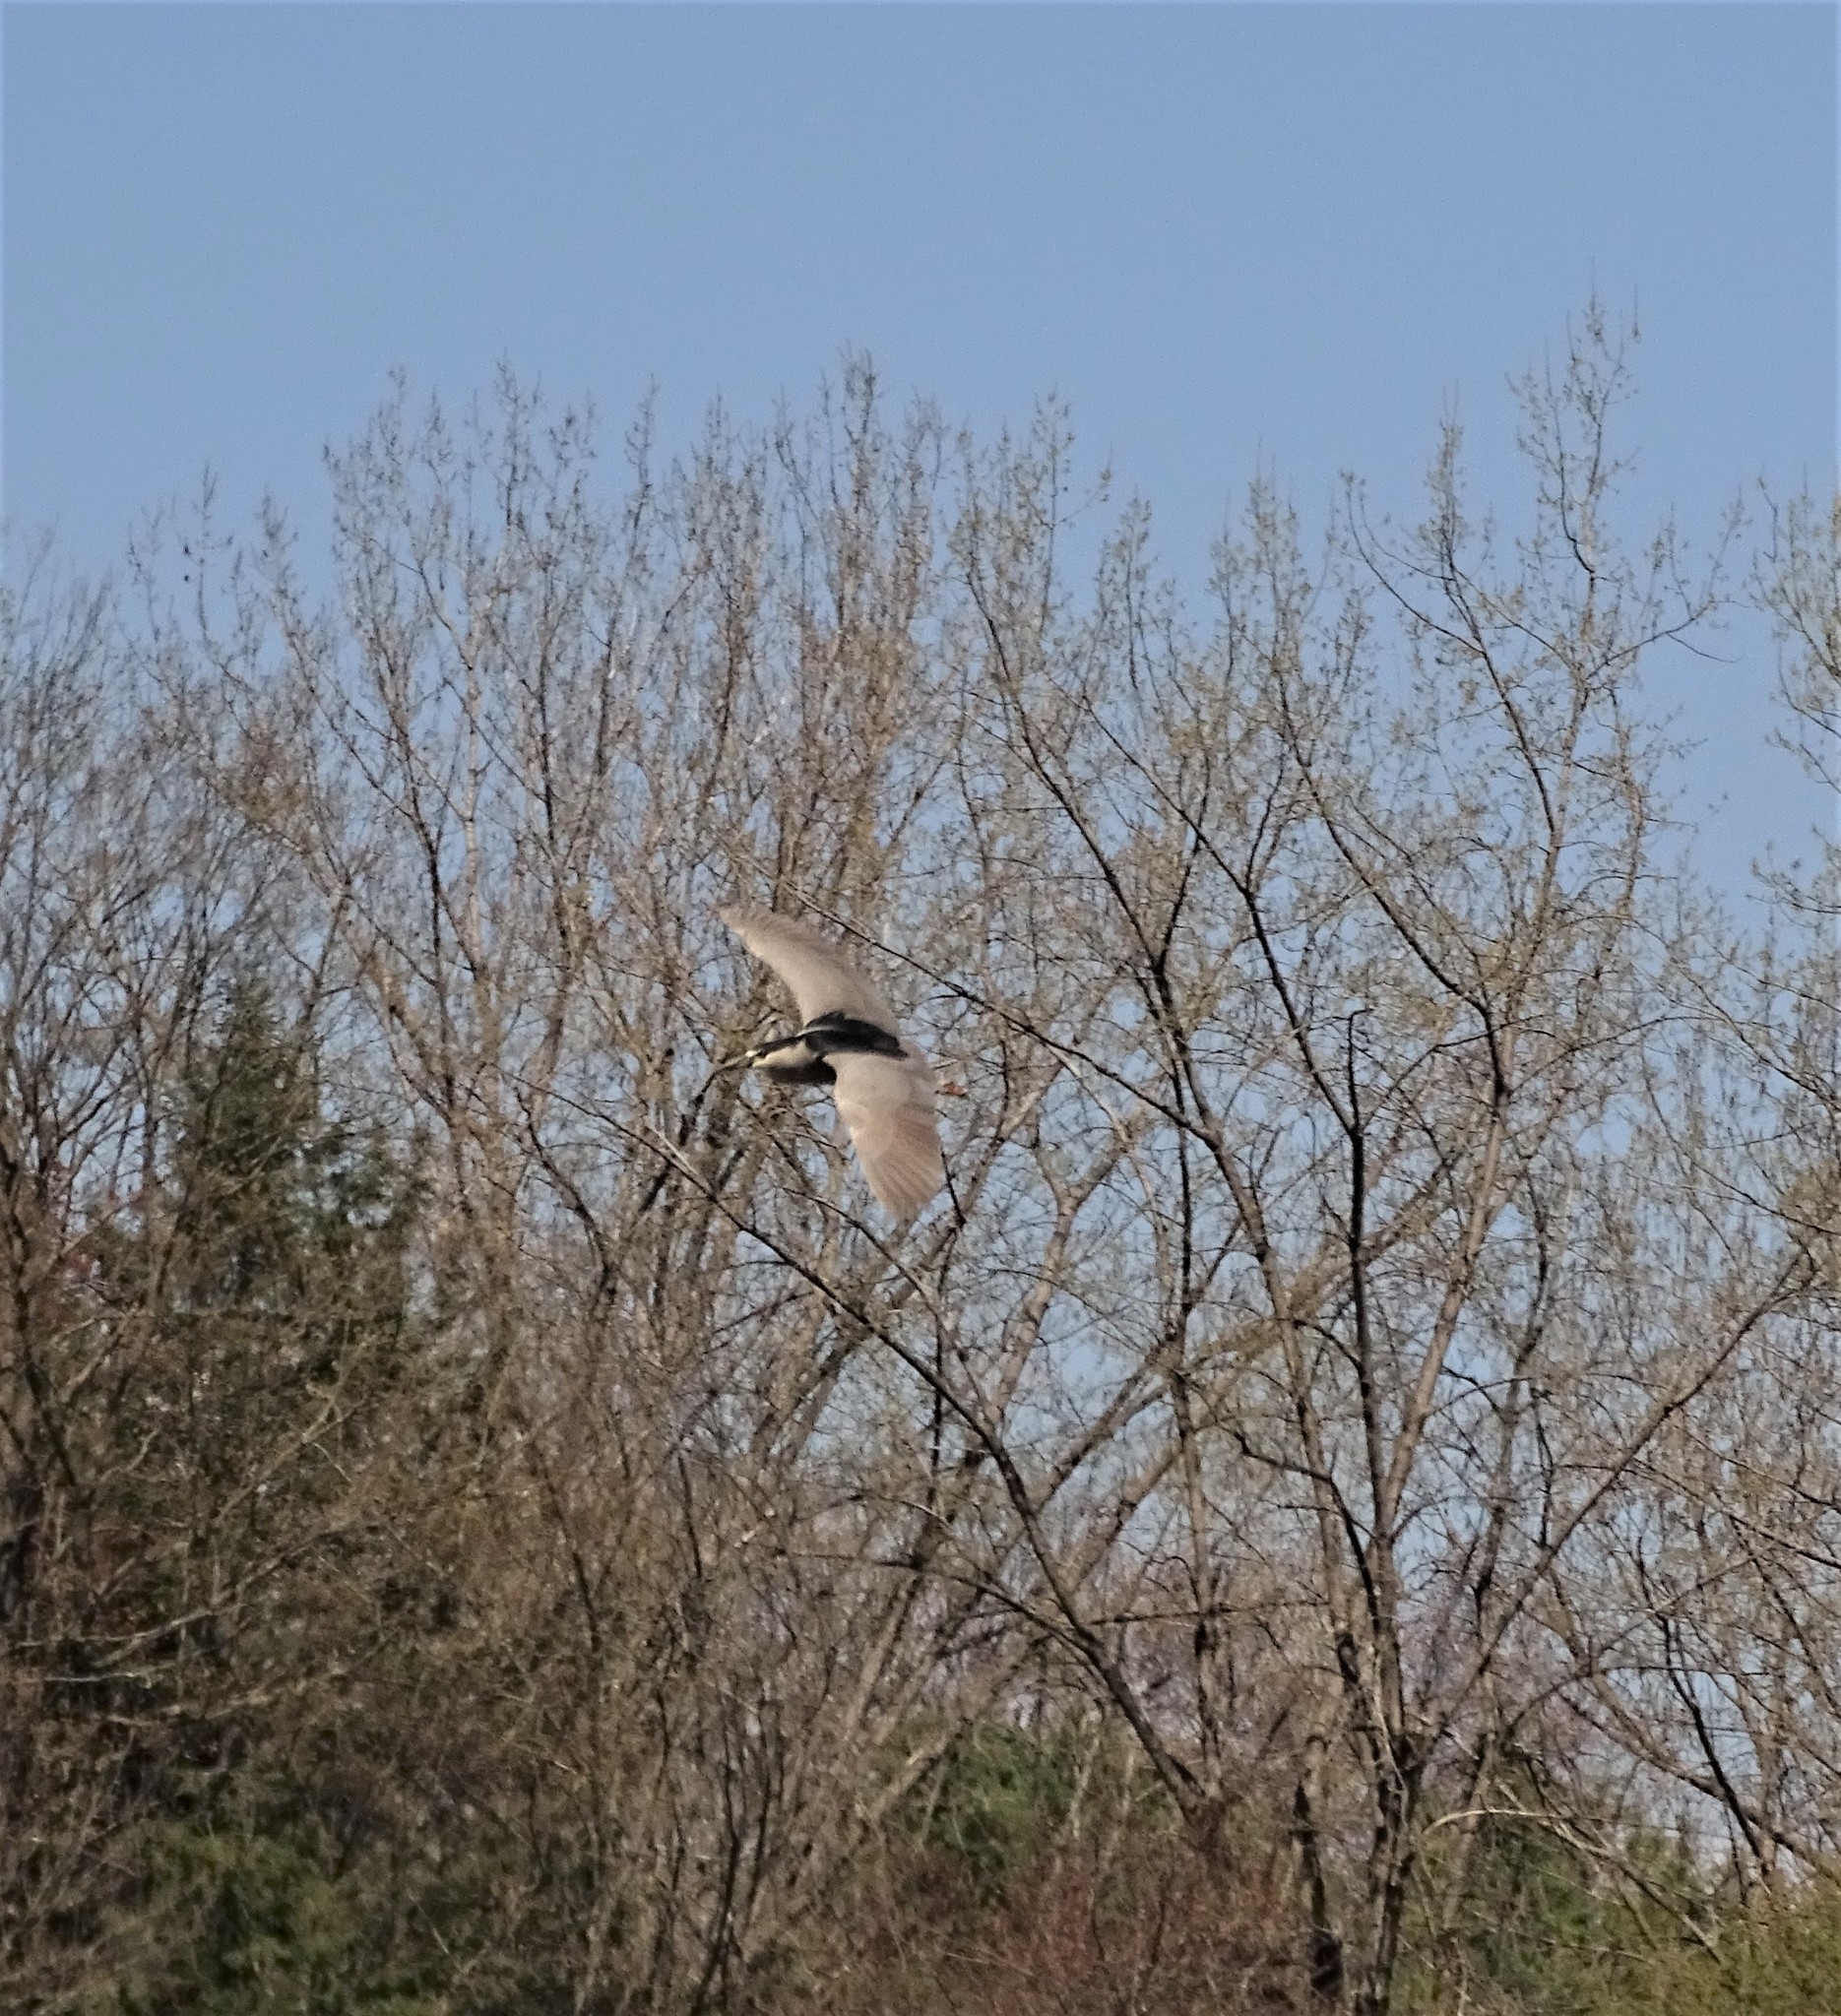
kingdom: Animalia
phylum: Chordata
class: Aves
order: Pelecaniformes
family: Ardeidae
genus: Nycticorax
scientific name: Nycticorax nycticorax
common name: Black-crowned night heron
